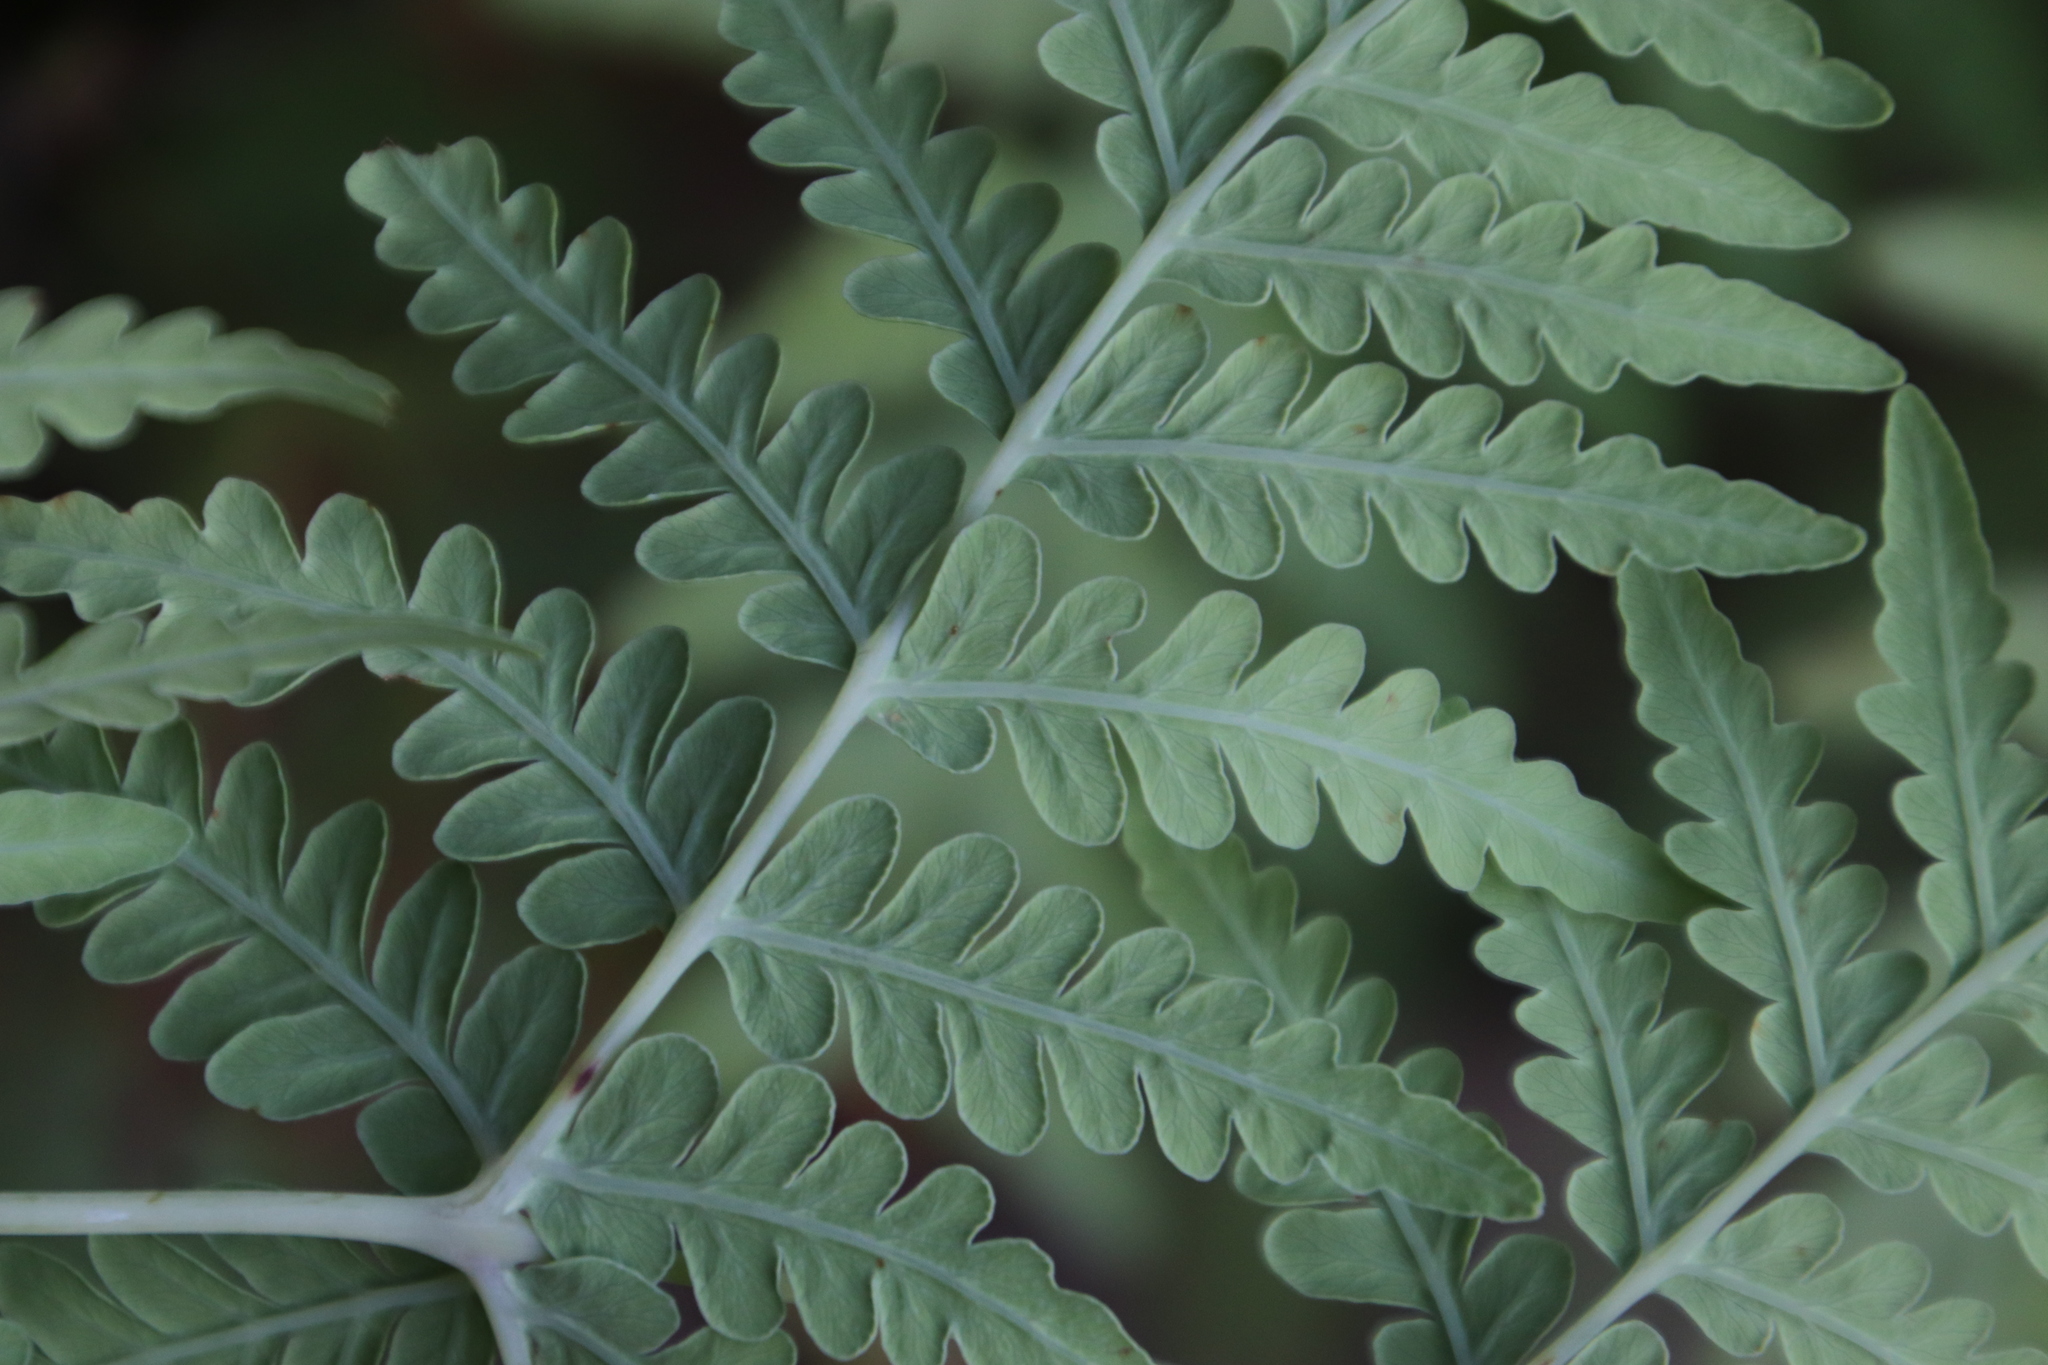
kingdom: Plantae
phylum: Tracheophyta
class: Polypodiopsida
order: Polypodiales
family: Dennstaedtiaceae
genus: Histiopteris
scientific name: Histiopteris incisa
